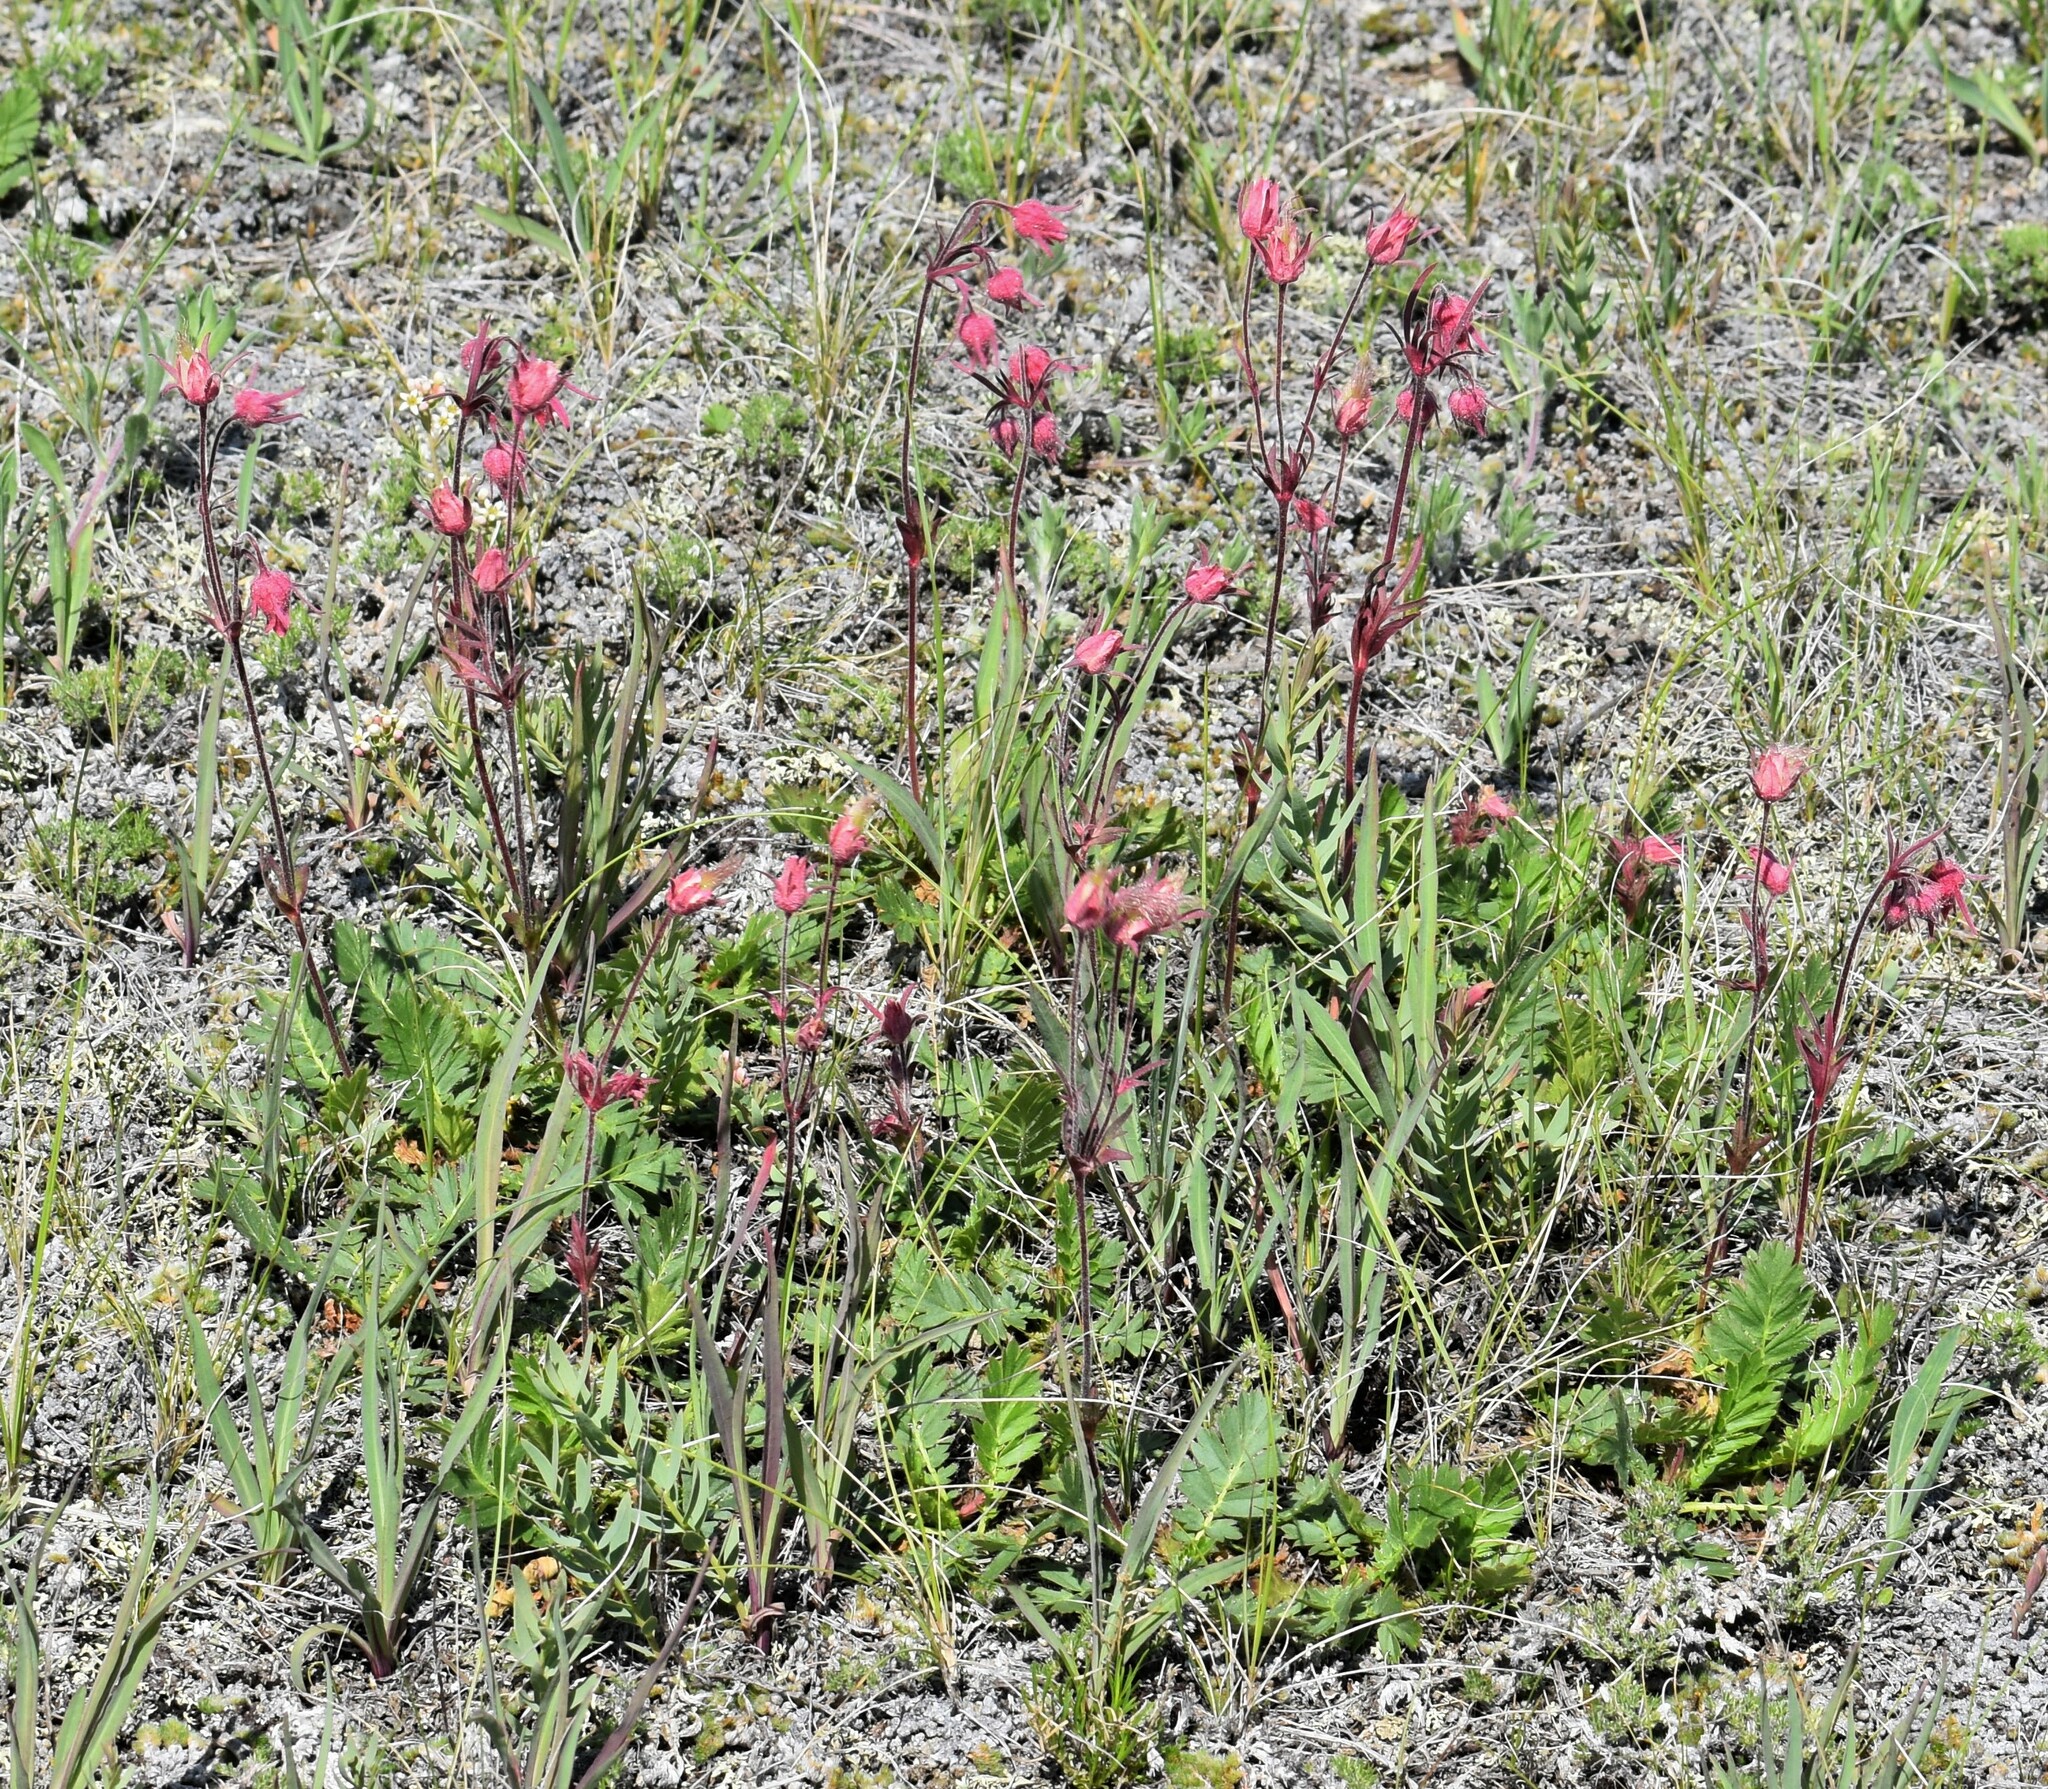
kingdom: Plantae
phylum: Tracheophyta
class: Magnoliopsida
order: Rosales
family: Rosaceae
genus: Geum
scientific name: Geum triflorum
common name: Old man's whiskers
